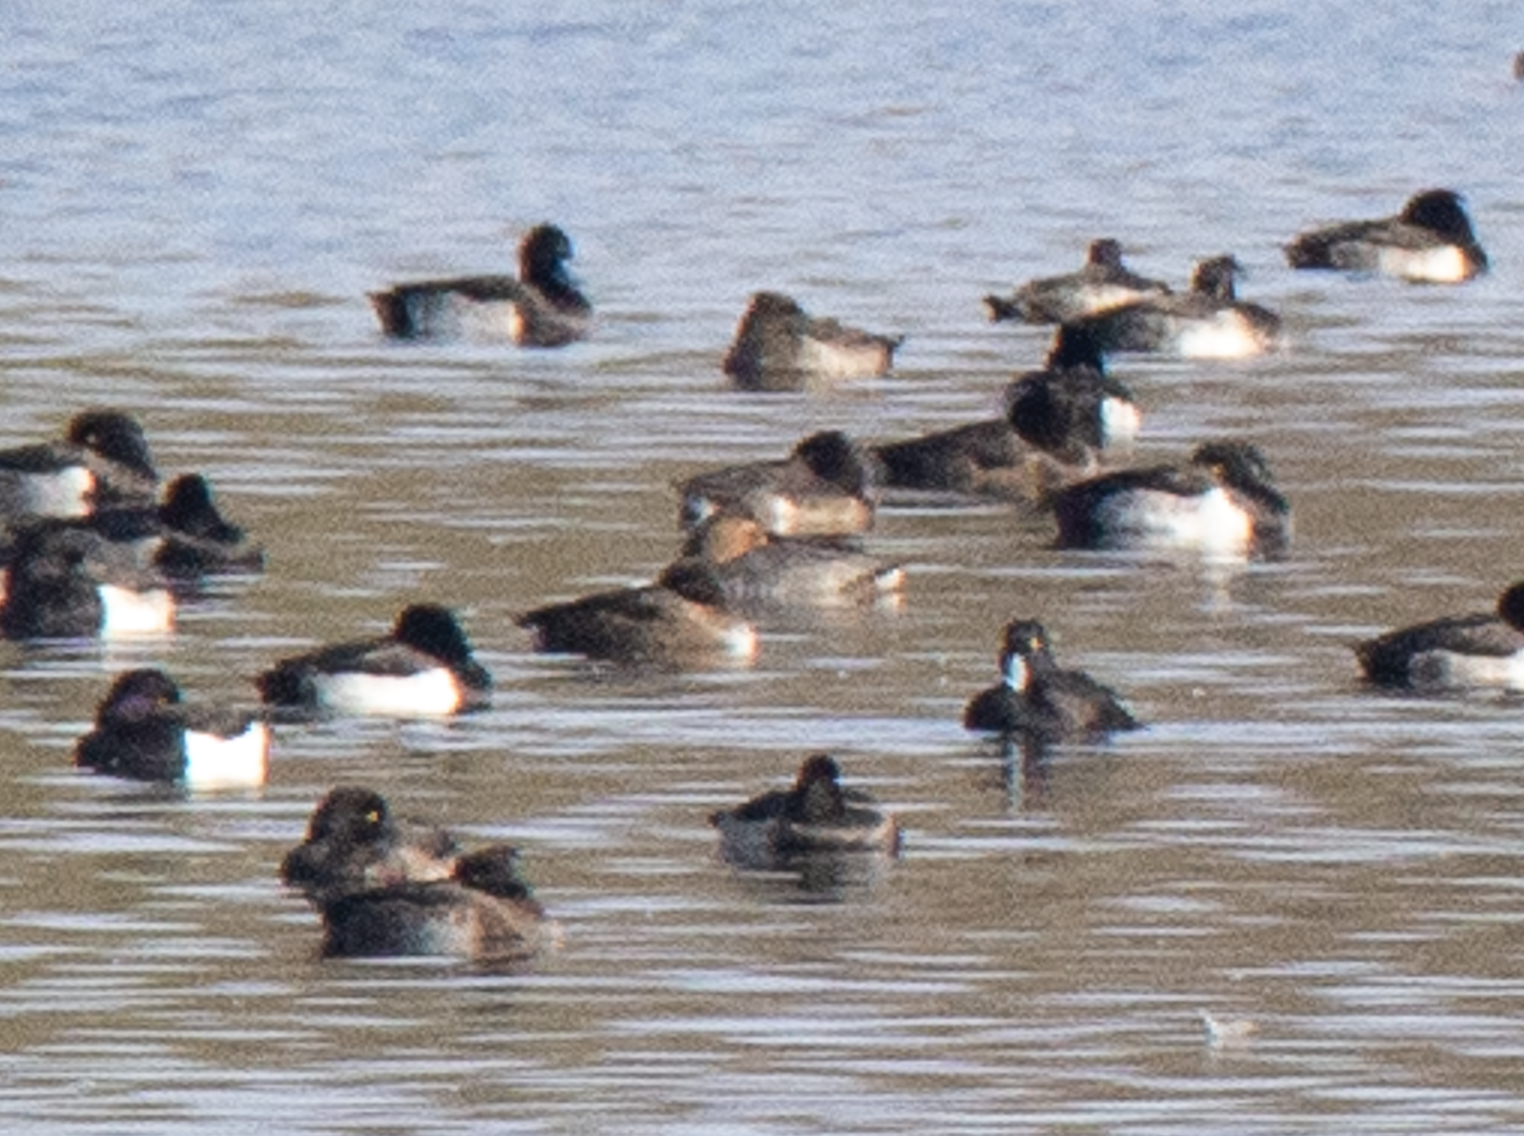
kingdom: Animalia
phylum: Chordata
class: Aves
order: Anseriformes
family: Anatidae
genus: Aythya
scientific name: Aythya fuligula
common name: Tufted duck
